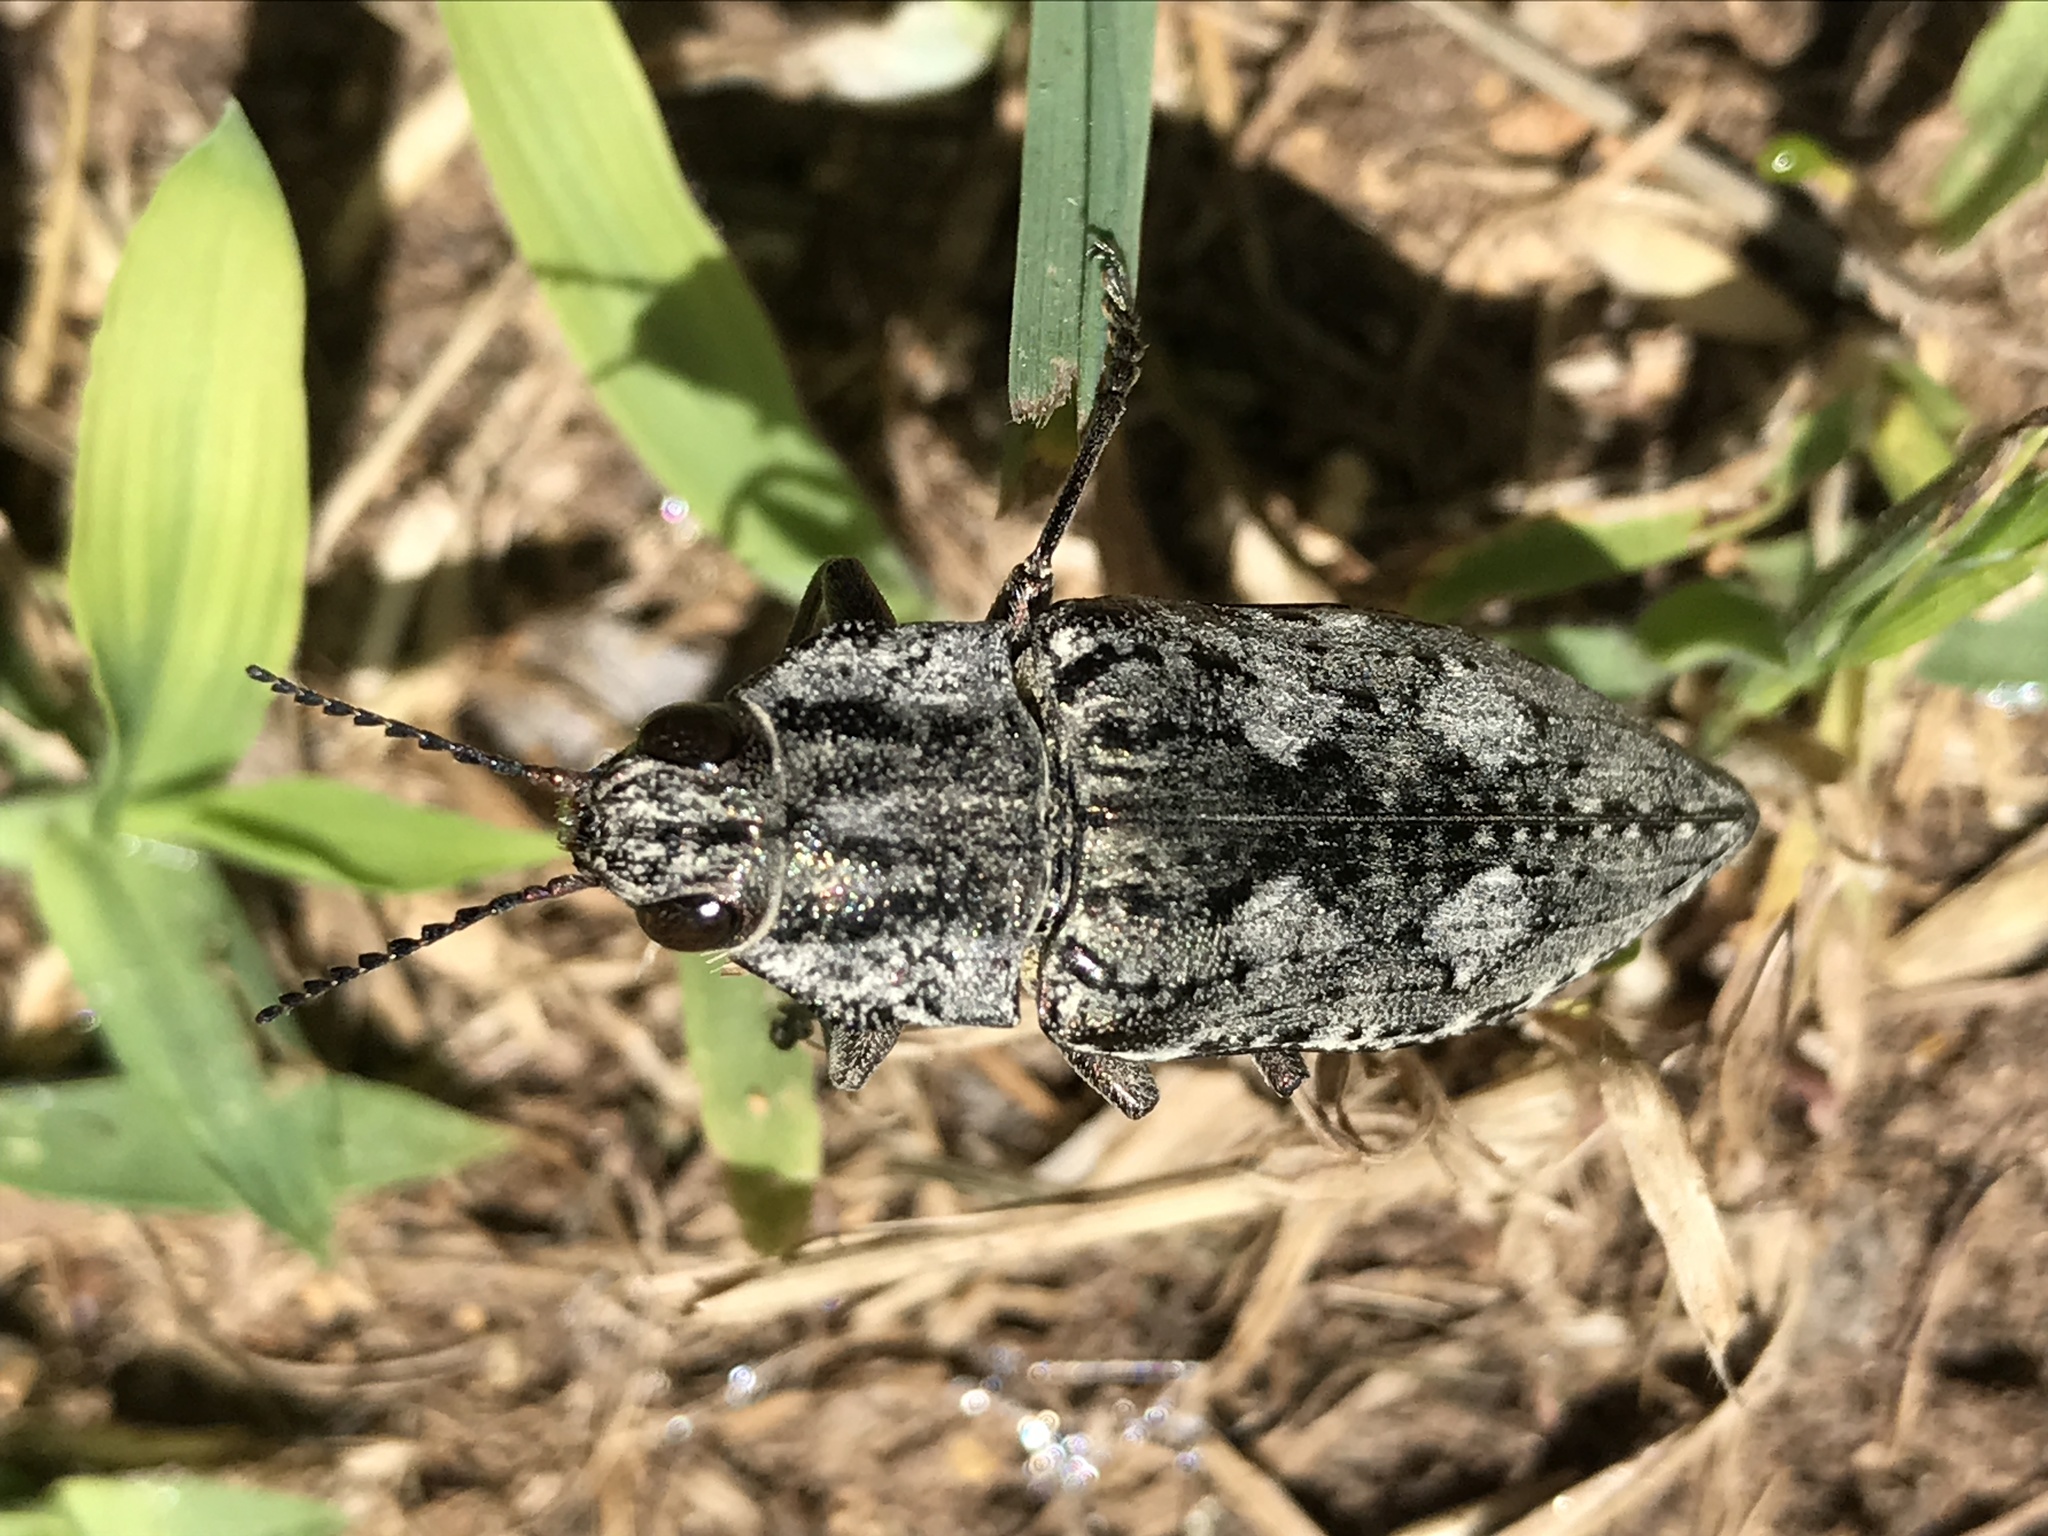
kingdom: Animalia
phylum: Arthropoda
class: Insecta
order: Coleoptera
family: Buprestidae
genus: Texania
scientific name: Texania fulleri
